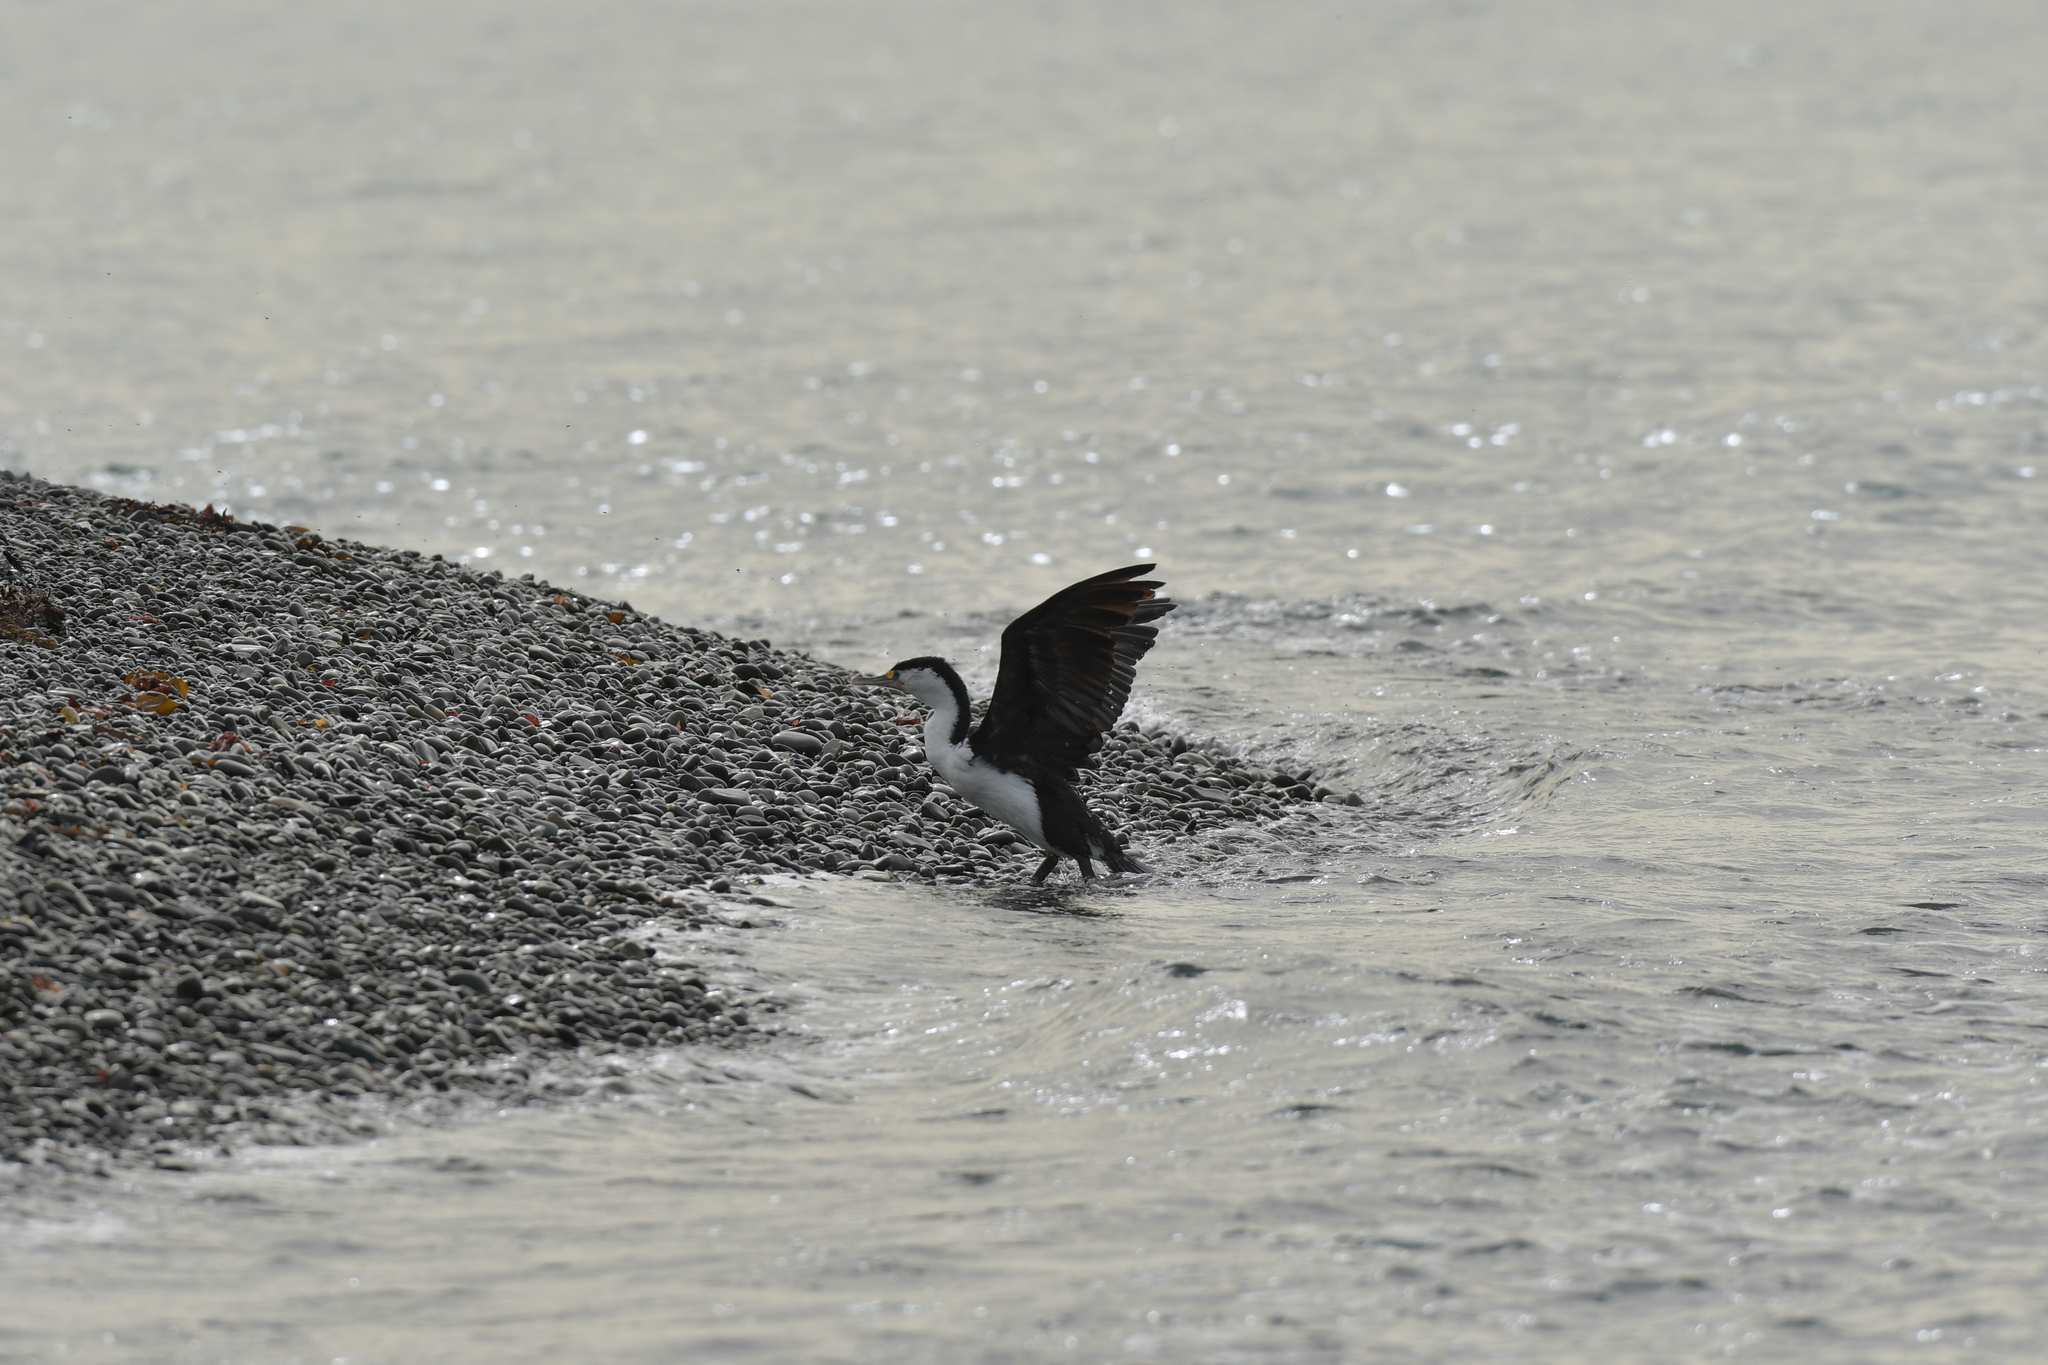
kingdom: Animalia
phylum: Chordata
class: Aves
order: Suliformes
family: Phalacrocoracidae
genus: Phalacrocorax
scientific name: Phalacrocorax varius
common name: Pied cormorant
